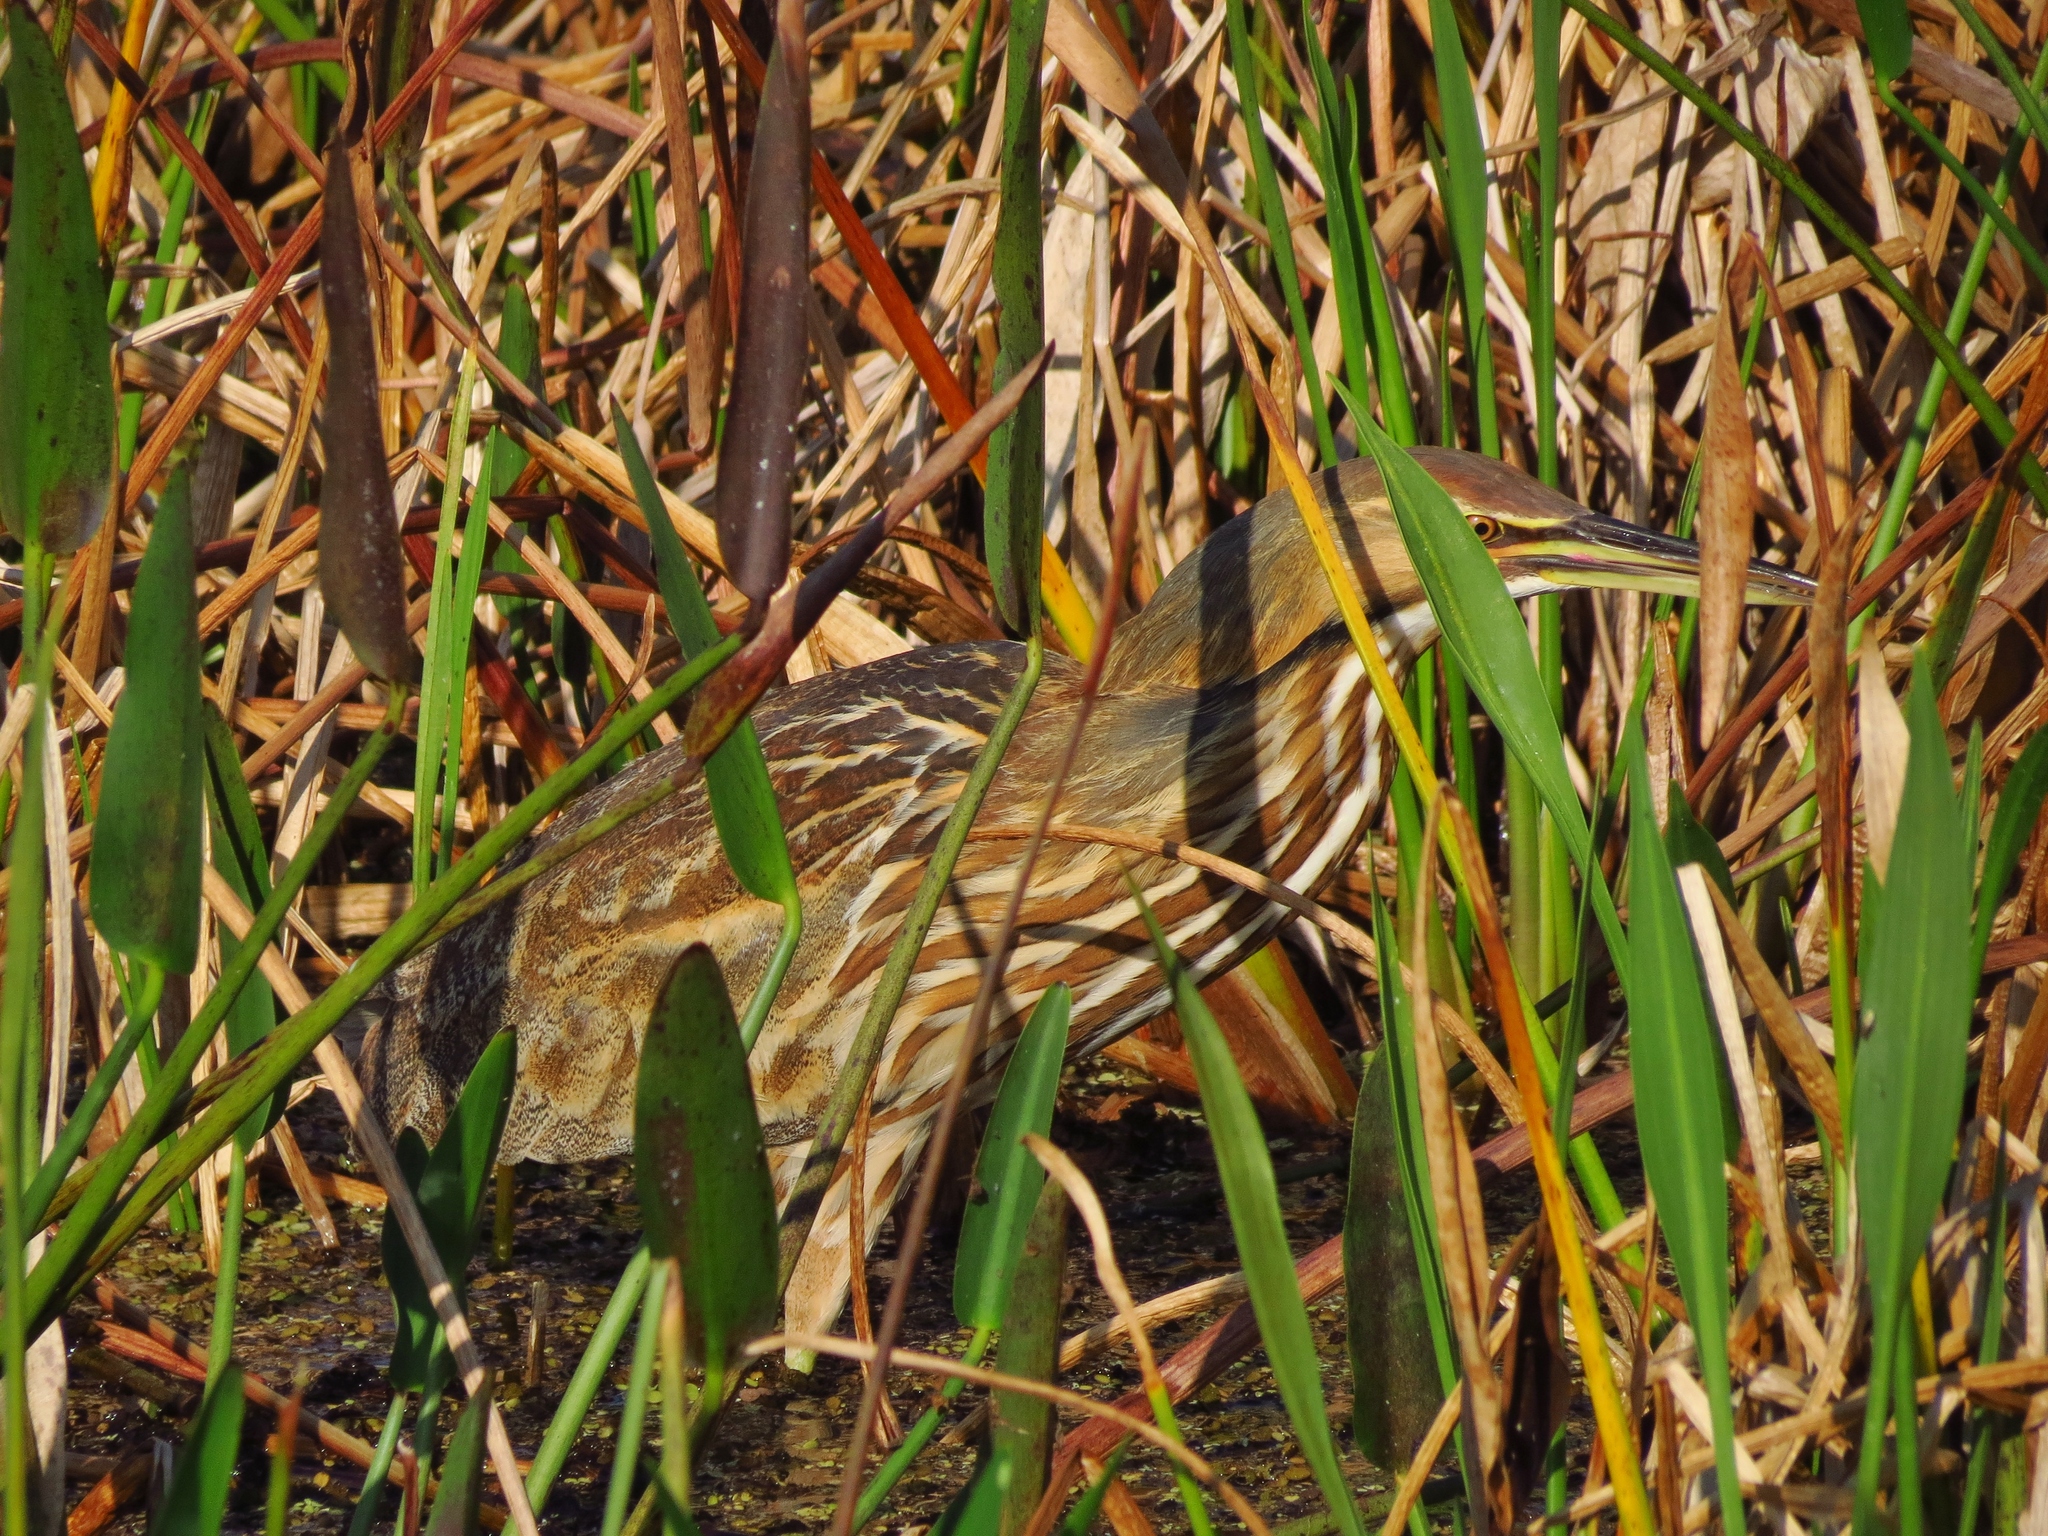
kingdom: Animalia
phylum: Chordata
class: Aves
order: Pelecaniformes
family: Ardeidae
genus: Botaurus
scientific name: Botaurus lentiginosus
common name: American bittern
